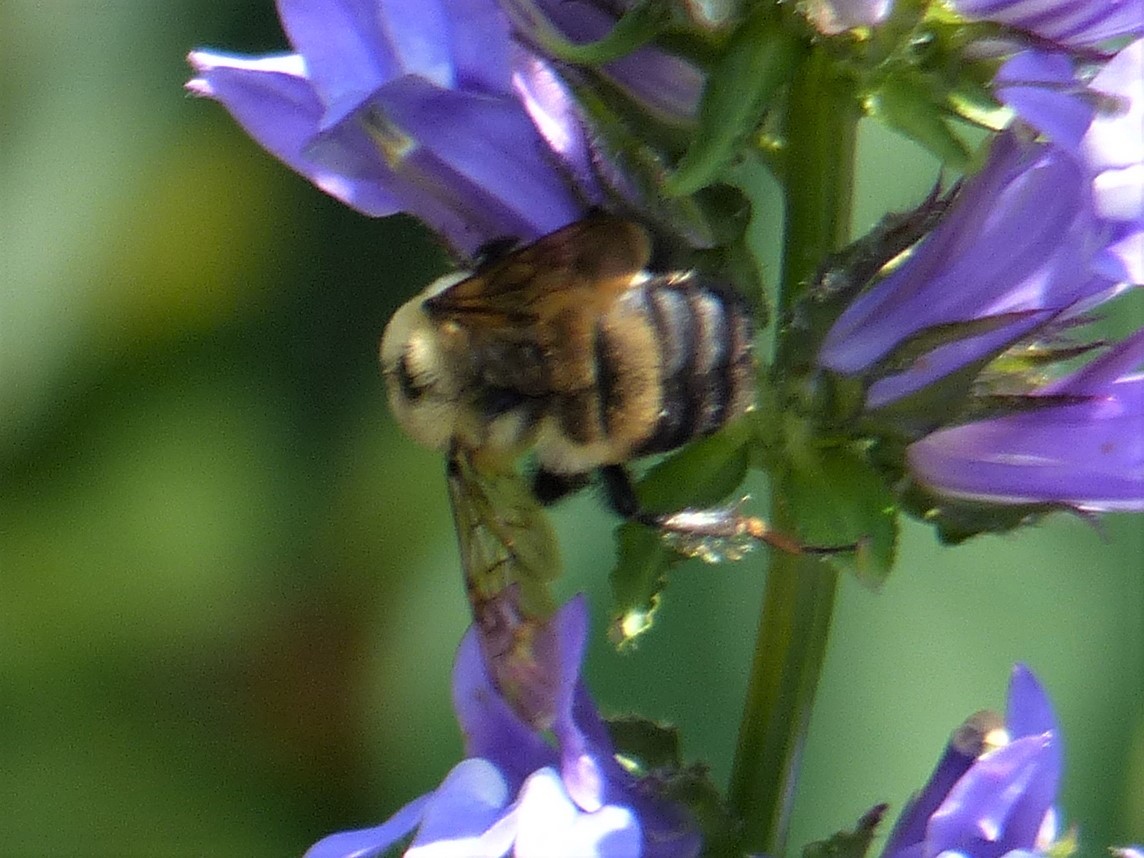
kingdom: Animalia
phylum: Arthropoda
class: Insecta
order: Hymenoptera
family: Apidae
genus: Bombus
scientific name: Bombus griseocollis
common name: Brown-belted bumble bee
